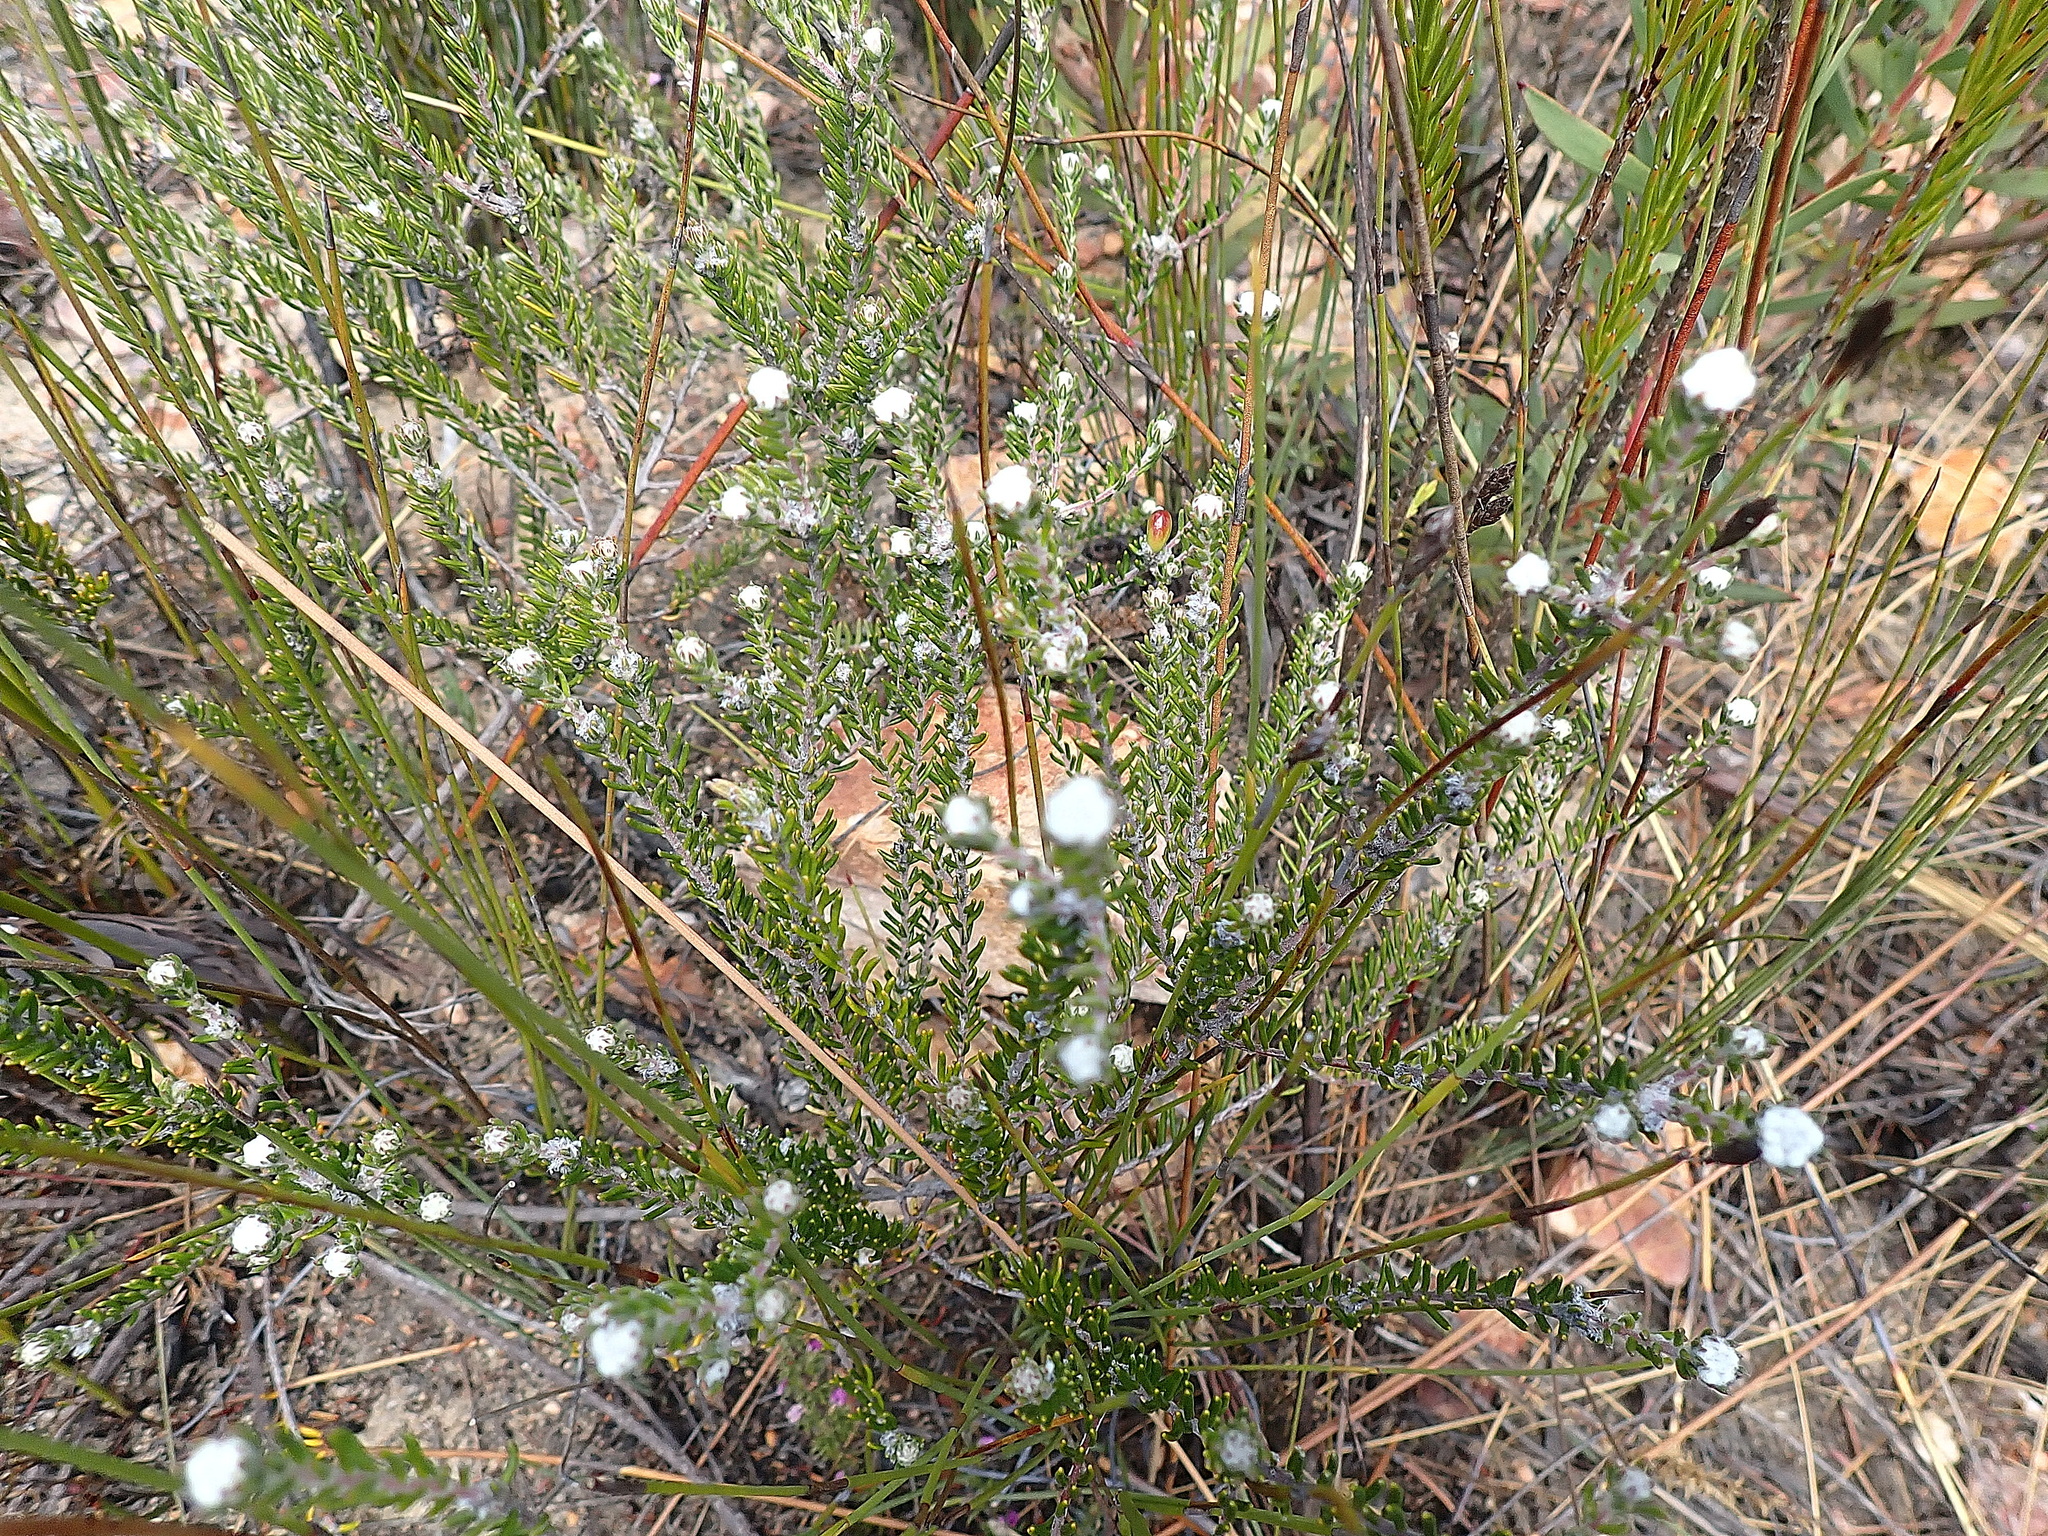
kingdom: Plantae
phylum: Tracheophyta
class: Magnoliopsida
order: Rosales
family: Rhamnaceae
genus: Phylica
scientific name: Phylica karroica
